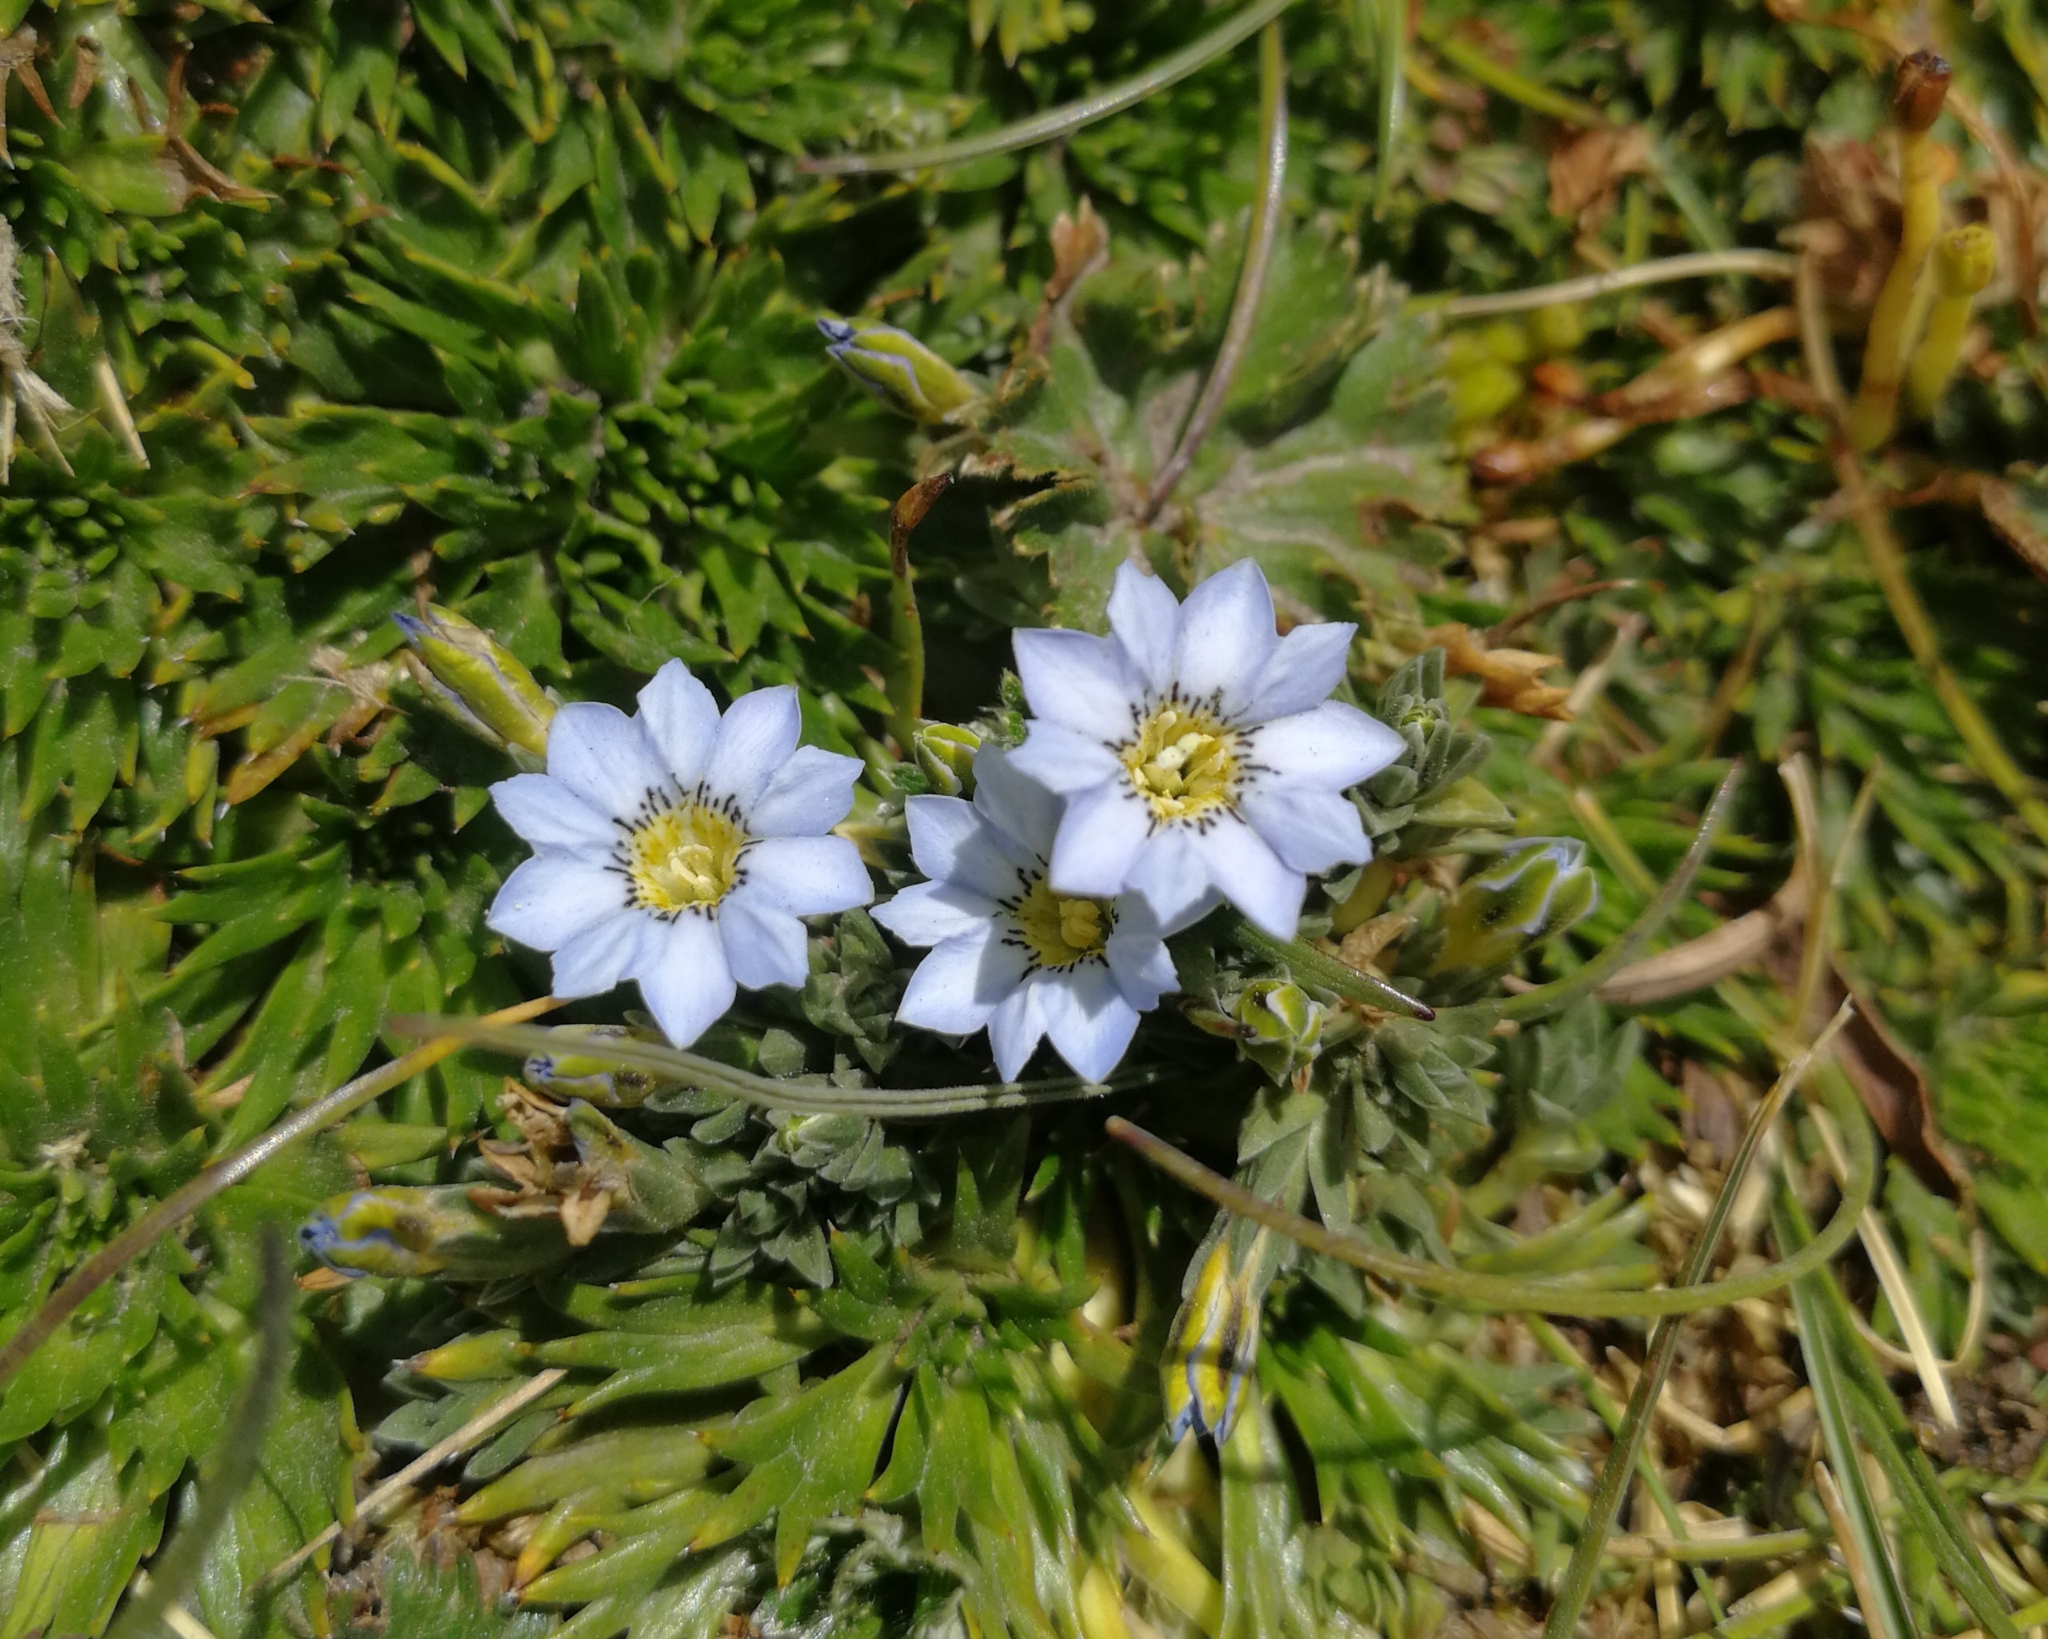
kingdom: Plantae
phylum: Tracheophyta
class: Magnoliopsida
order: Gentianales
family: Gentianaceae
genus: Gentiana
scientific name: Gentiana sedifolia
